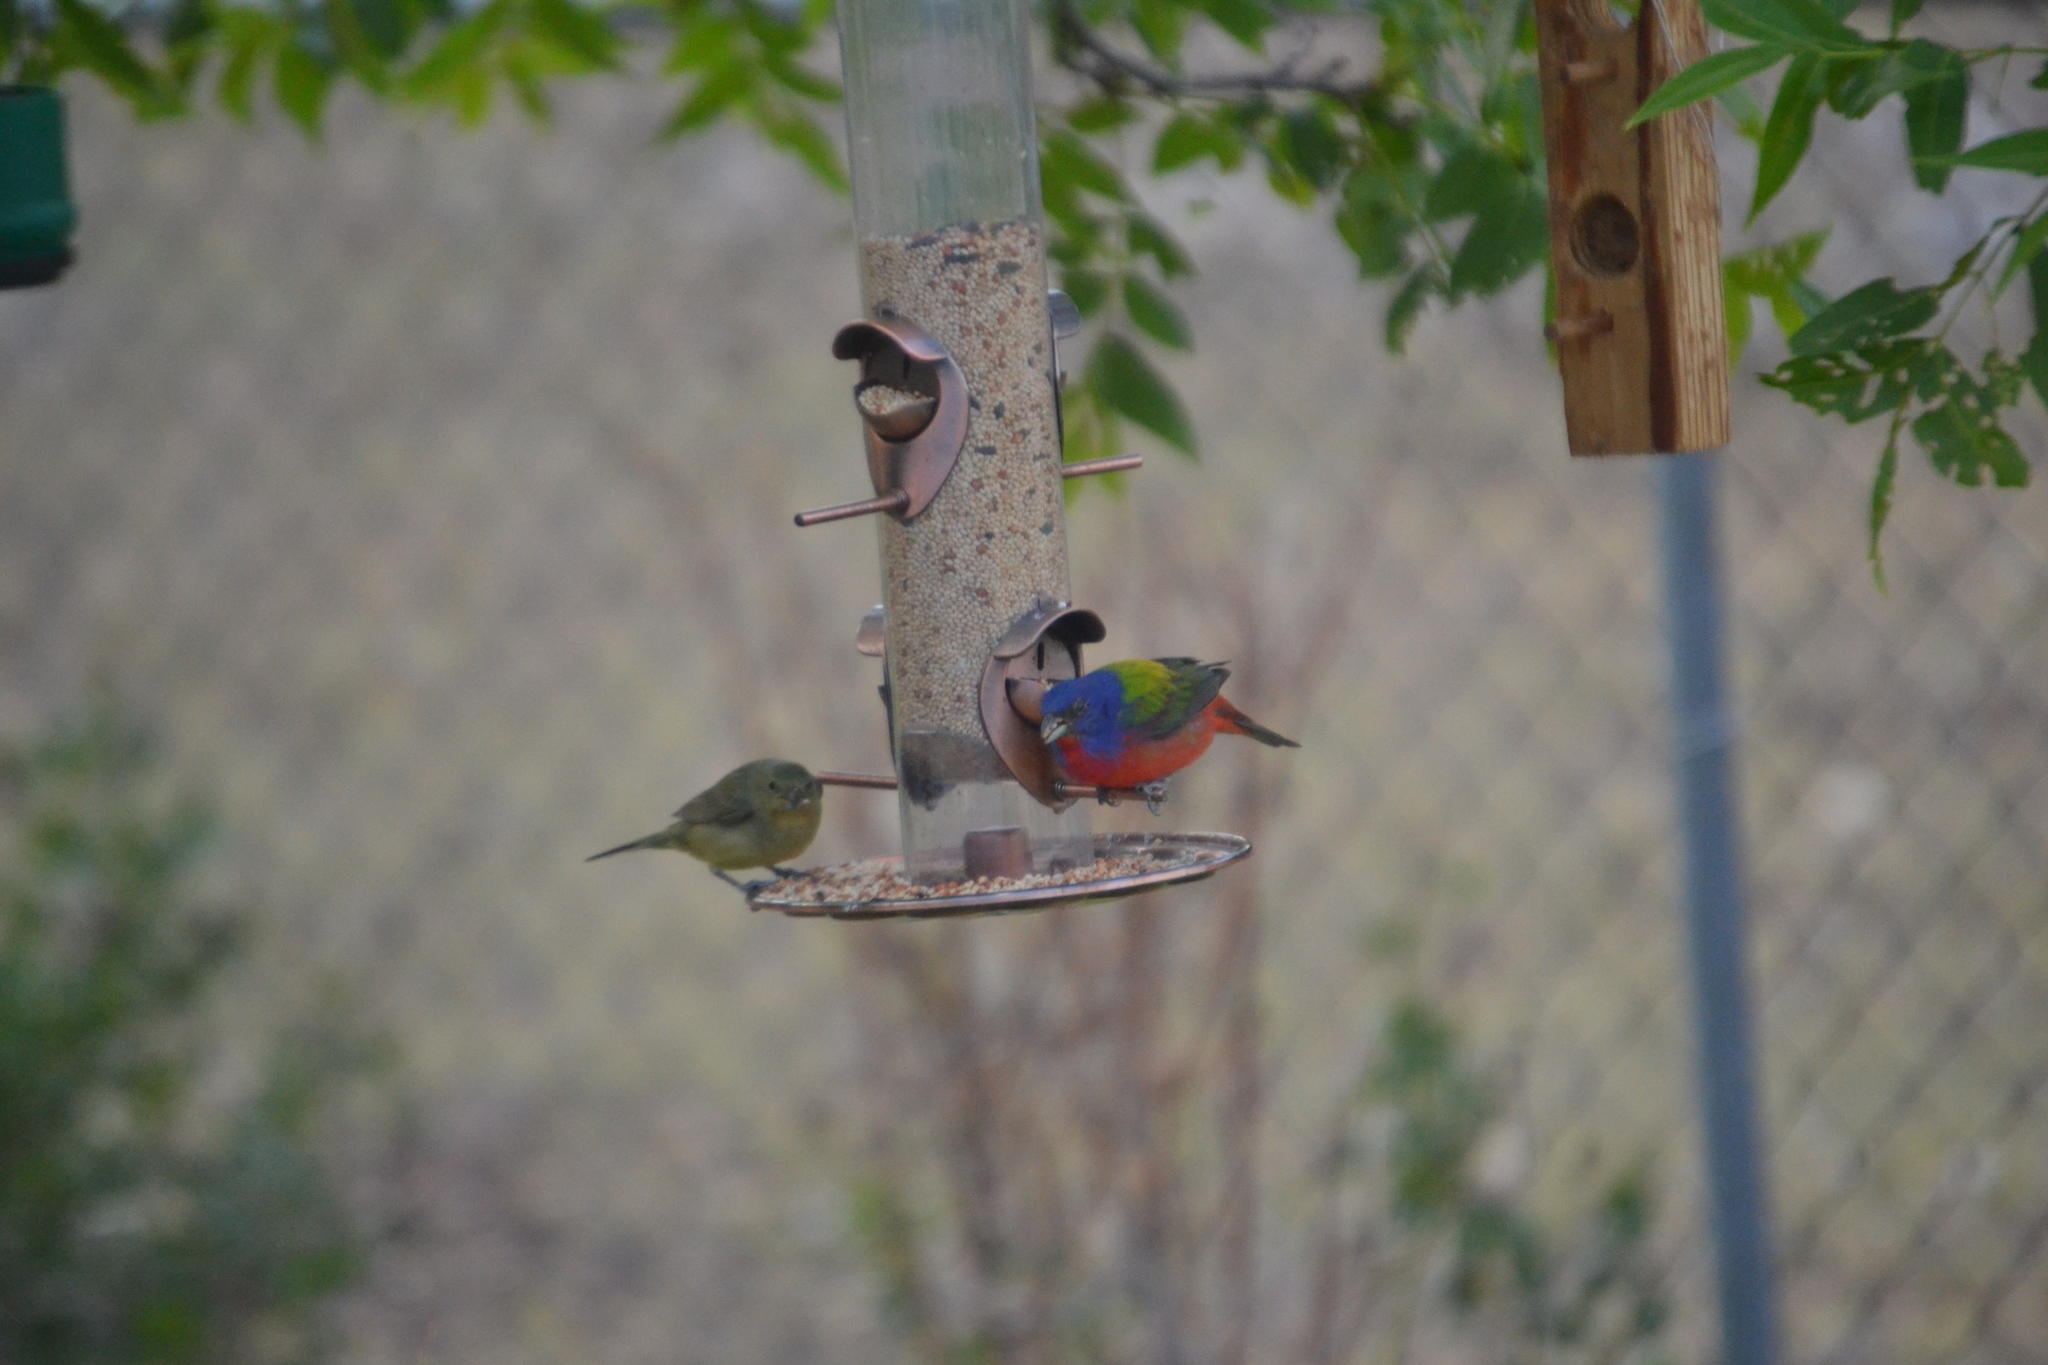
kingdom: Animalia
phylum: Chordata
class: Aves
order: Passeriformes
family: Cardinalidae
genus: Passerina
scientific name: Passerina ciris
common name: Painted bunting
